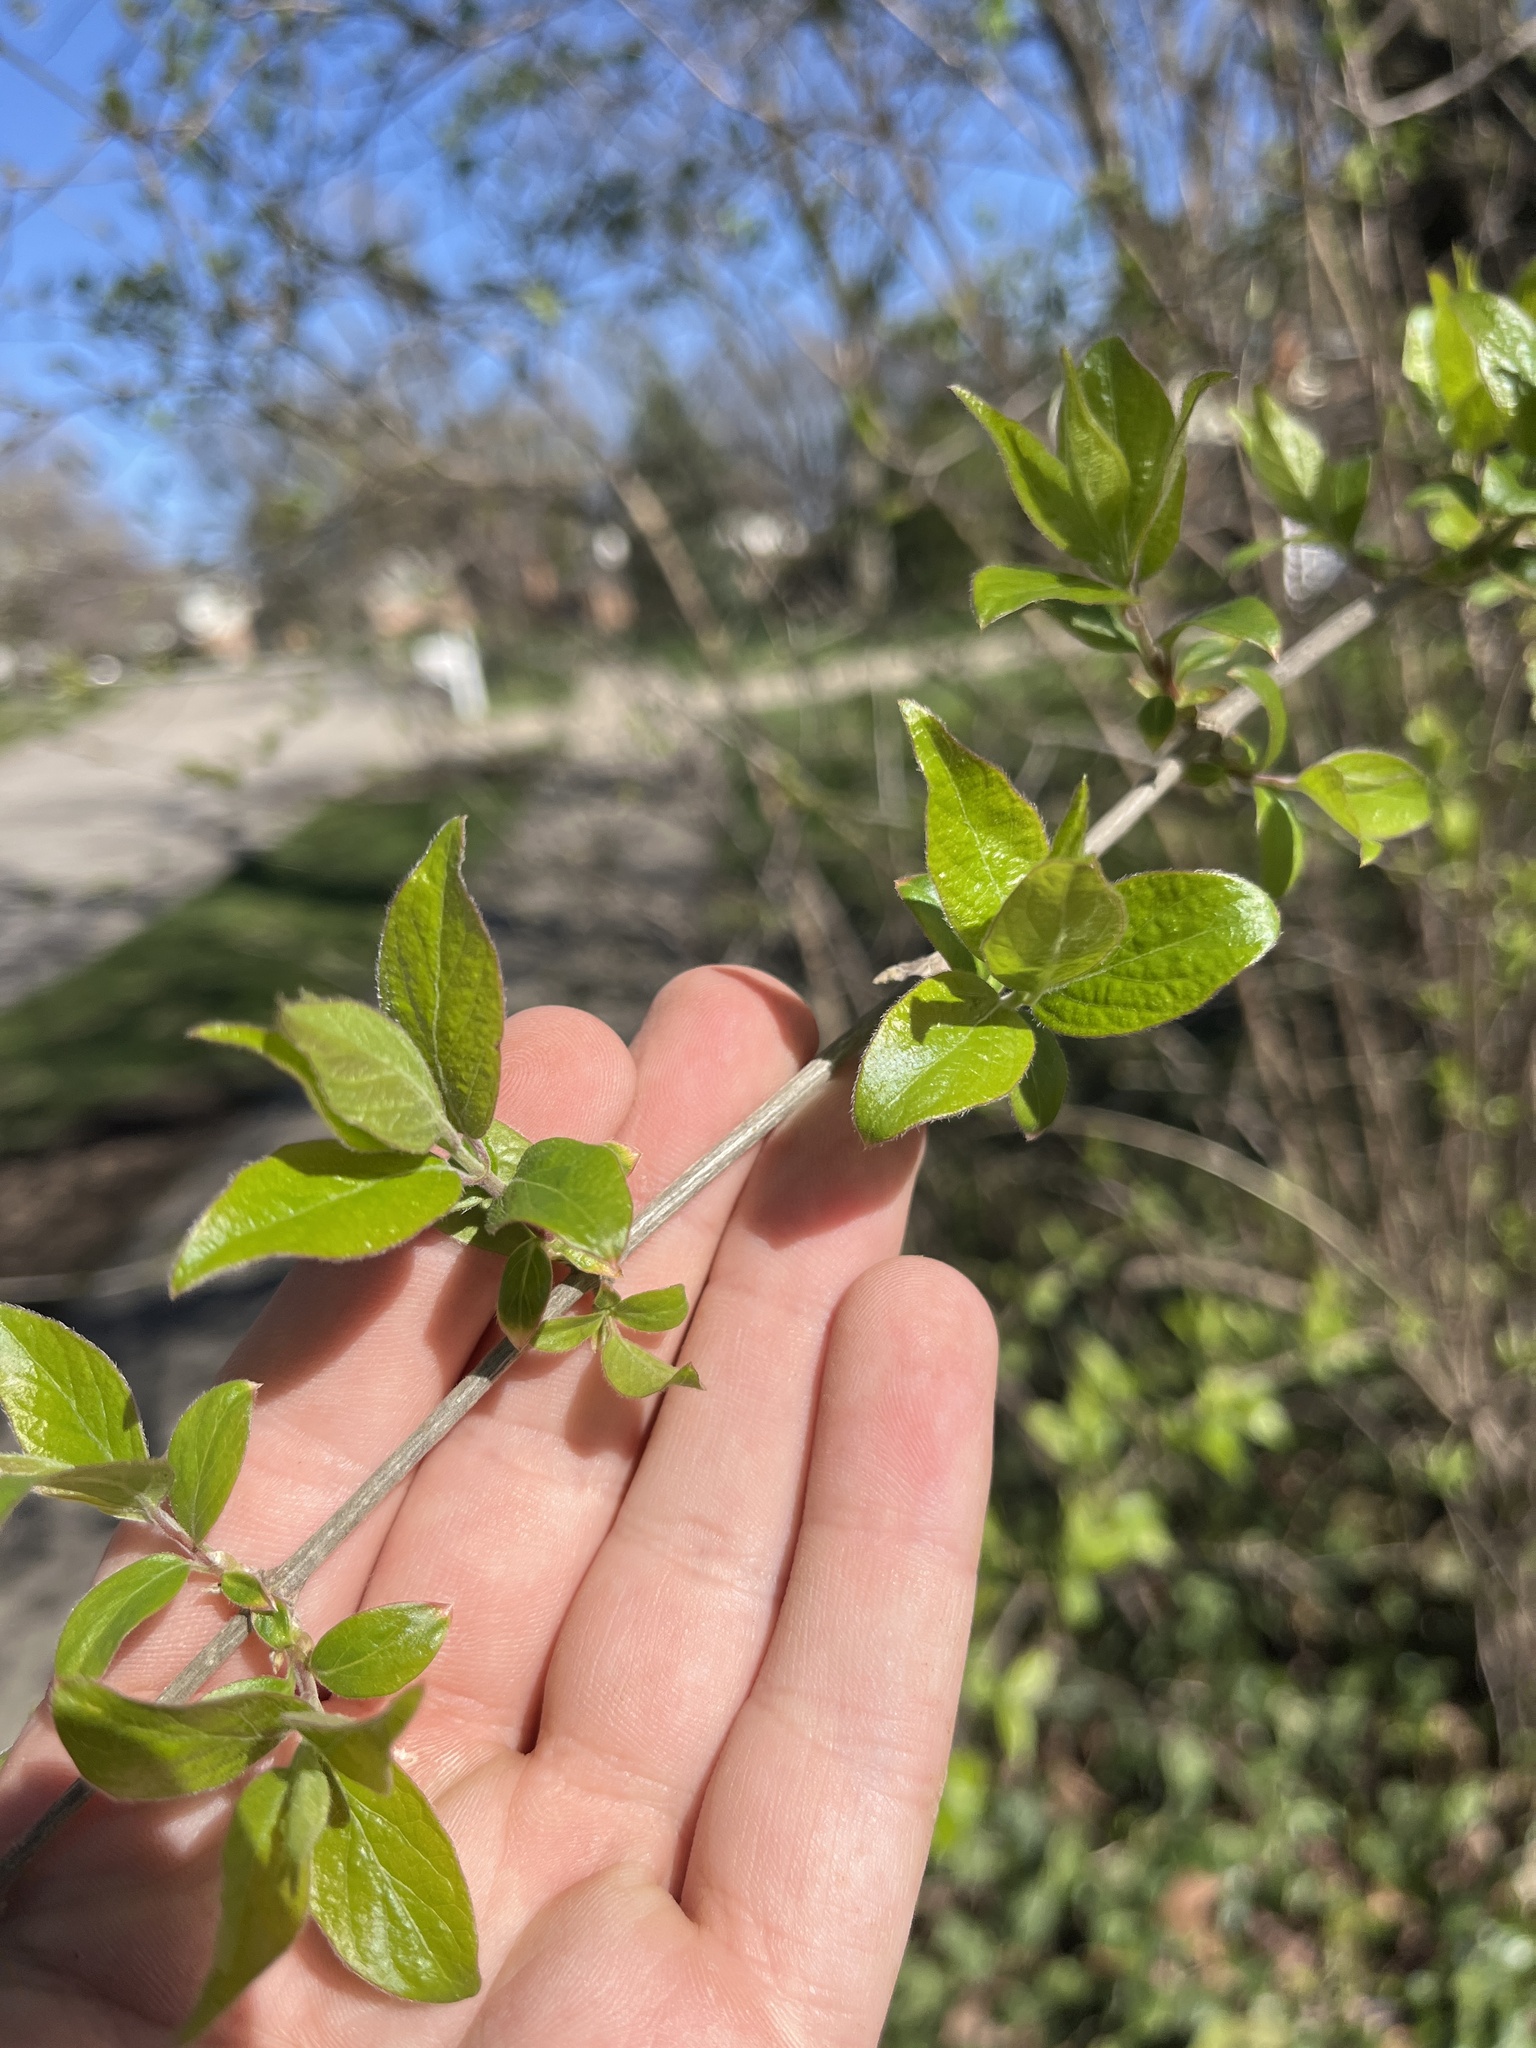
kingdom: Plantae
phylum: Tracheophyta
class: Magnoliopsida
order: Dipsacales
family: Caprifoliaceae
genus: Lonicera
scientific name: Lonicera maackii
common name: Amur honeysuckle
